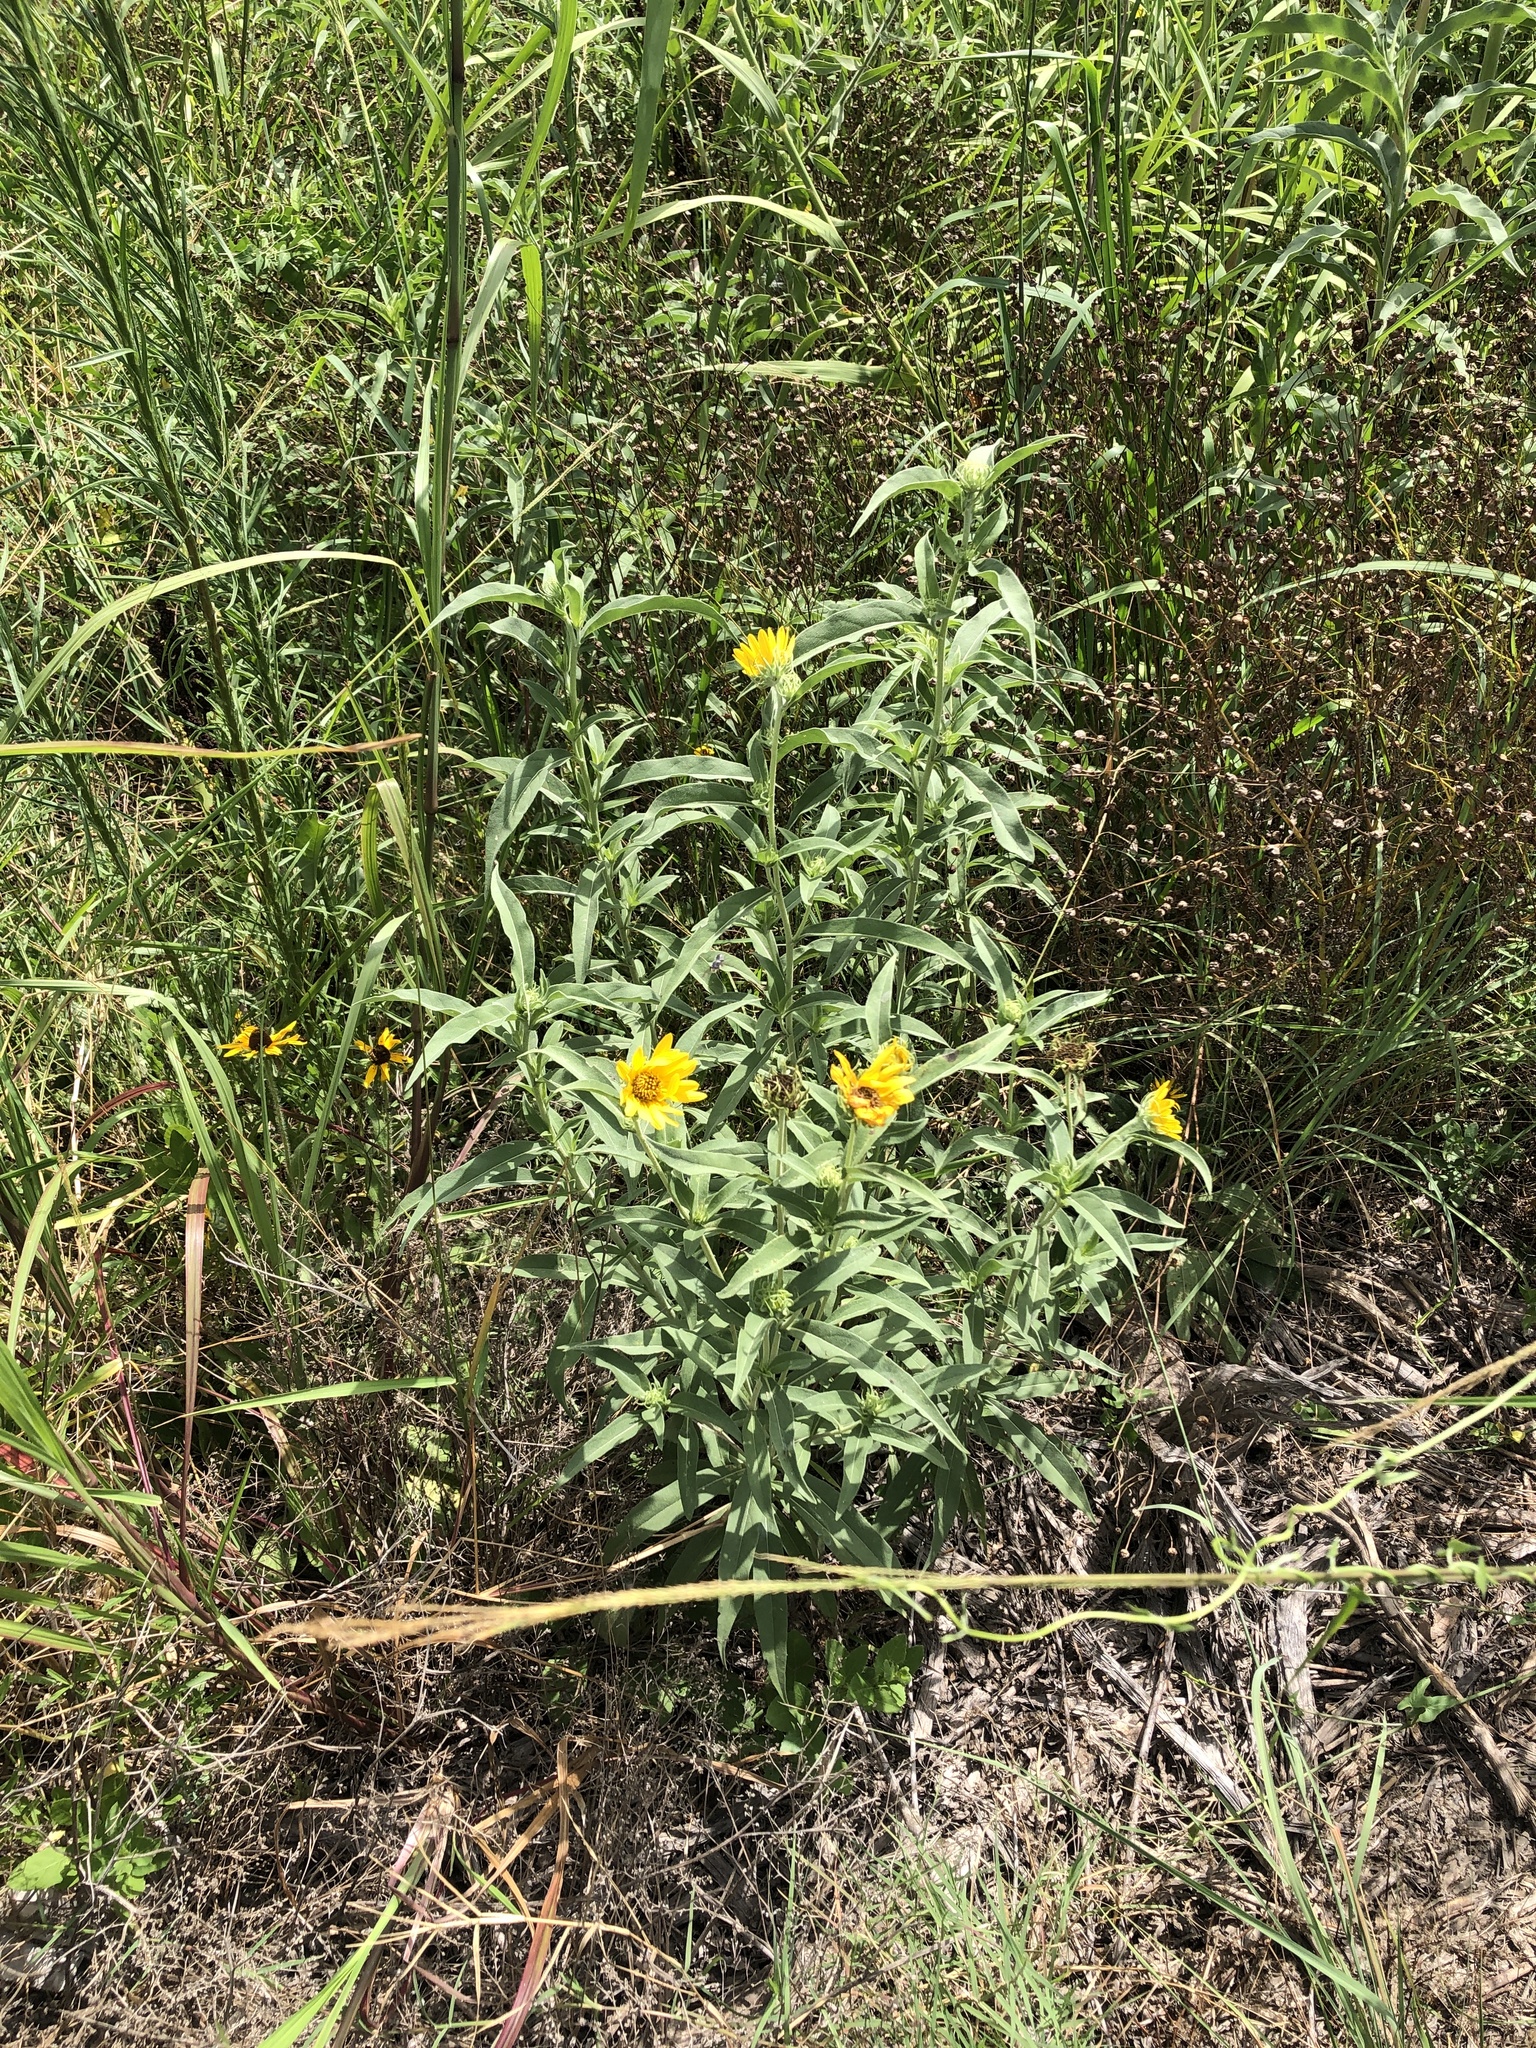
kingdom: Plantae
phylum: Tracheophyta
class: Magnoliopsida
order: Asterales
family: Asteraceae
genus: Helianthus
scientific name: Helianthus maximiliani
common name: Maximilian's sunflower
